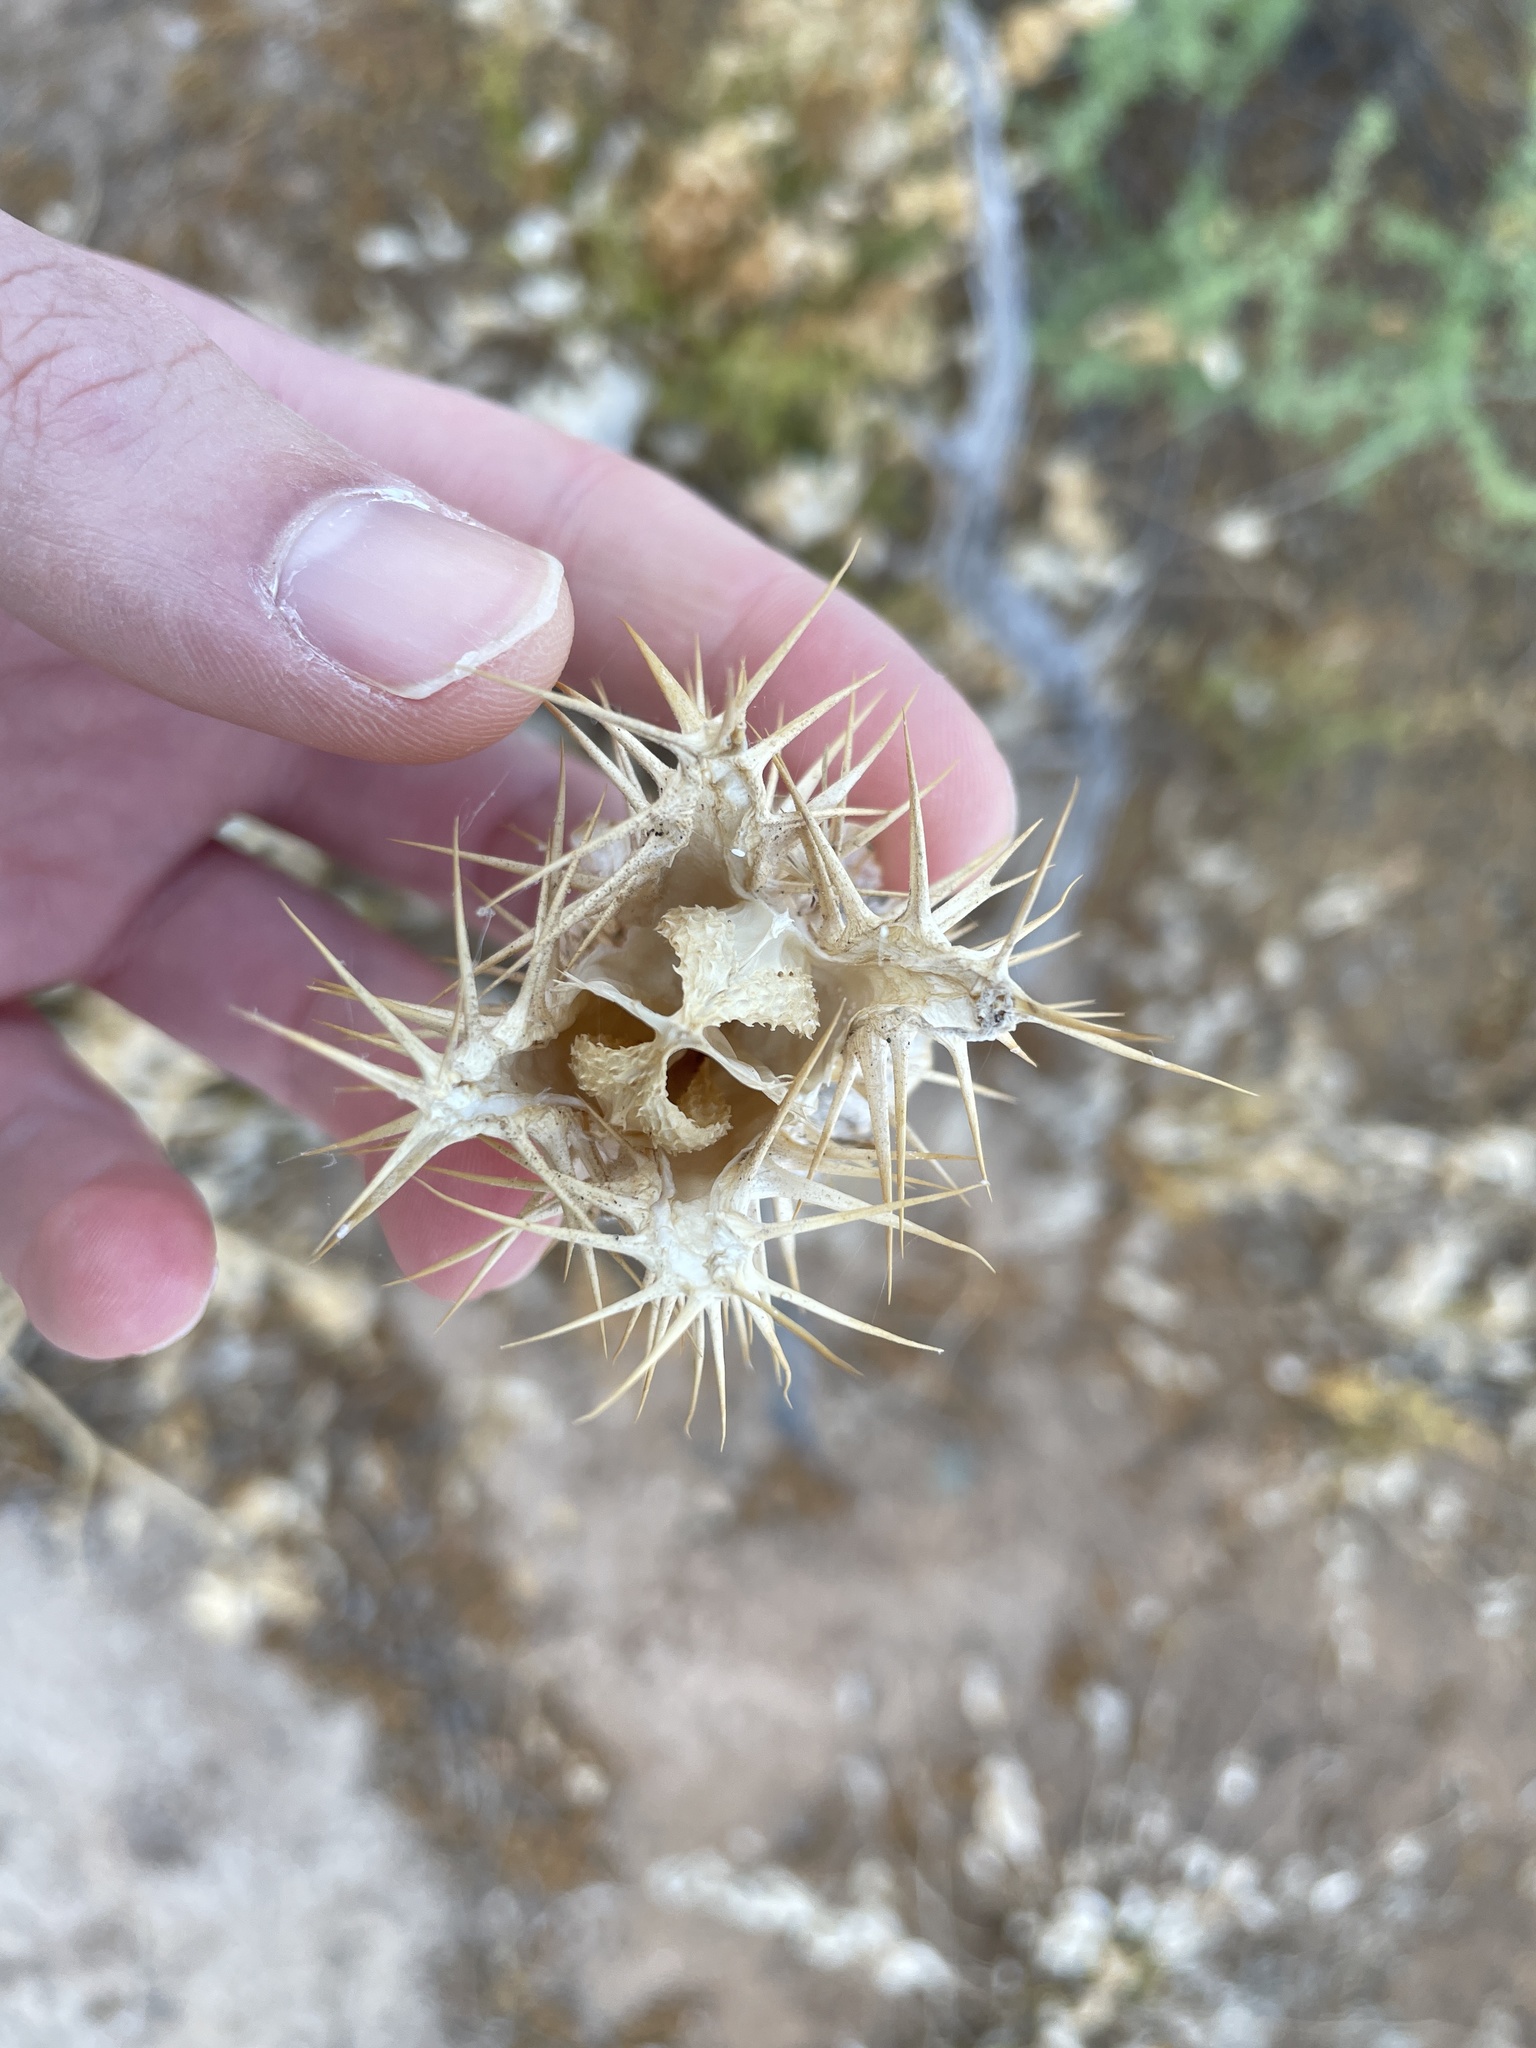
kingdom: Plantae
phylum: Tracheophyta
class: Magnoliopsida
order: Solanales
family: Solanaceae
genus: Datura
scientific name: Datura discolor
